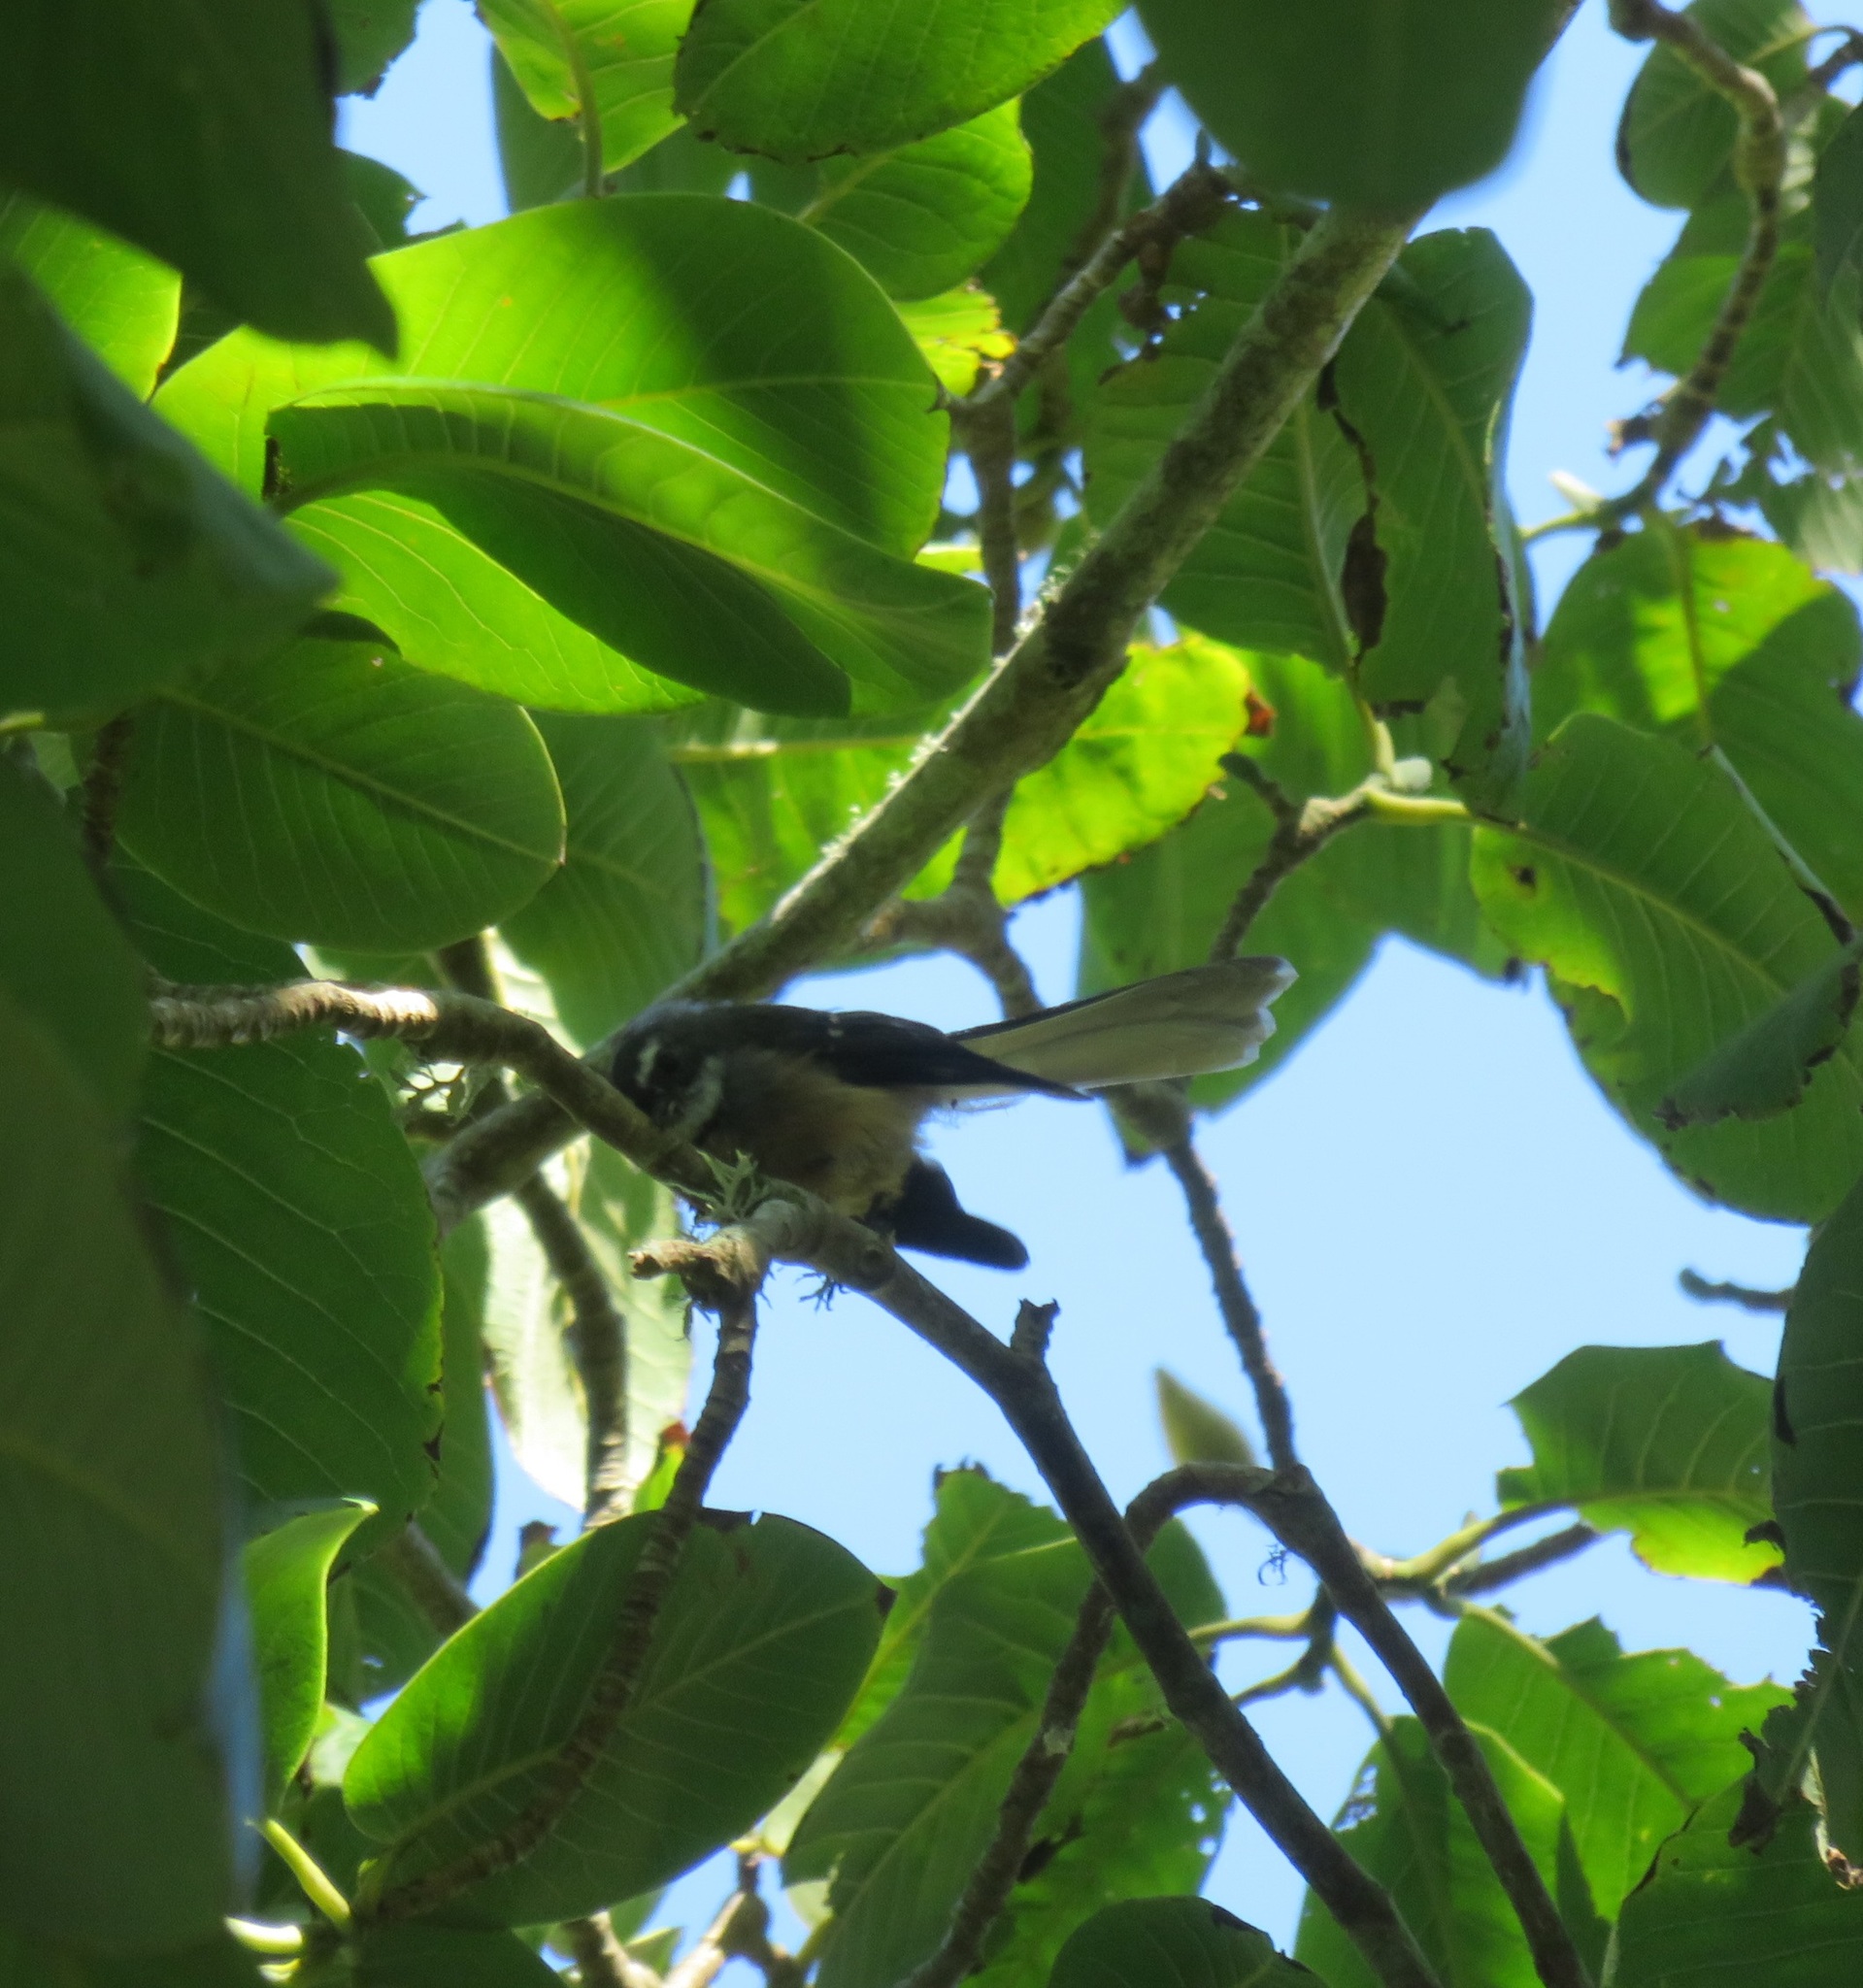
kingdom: Animalia
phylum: Chordata
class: Aves
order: Passeriformes
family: Rhipiduridae
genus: Rhipidura
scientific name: Rhipidura fuliginosa
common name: New zealand fantail
